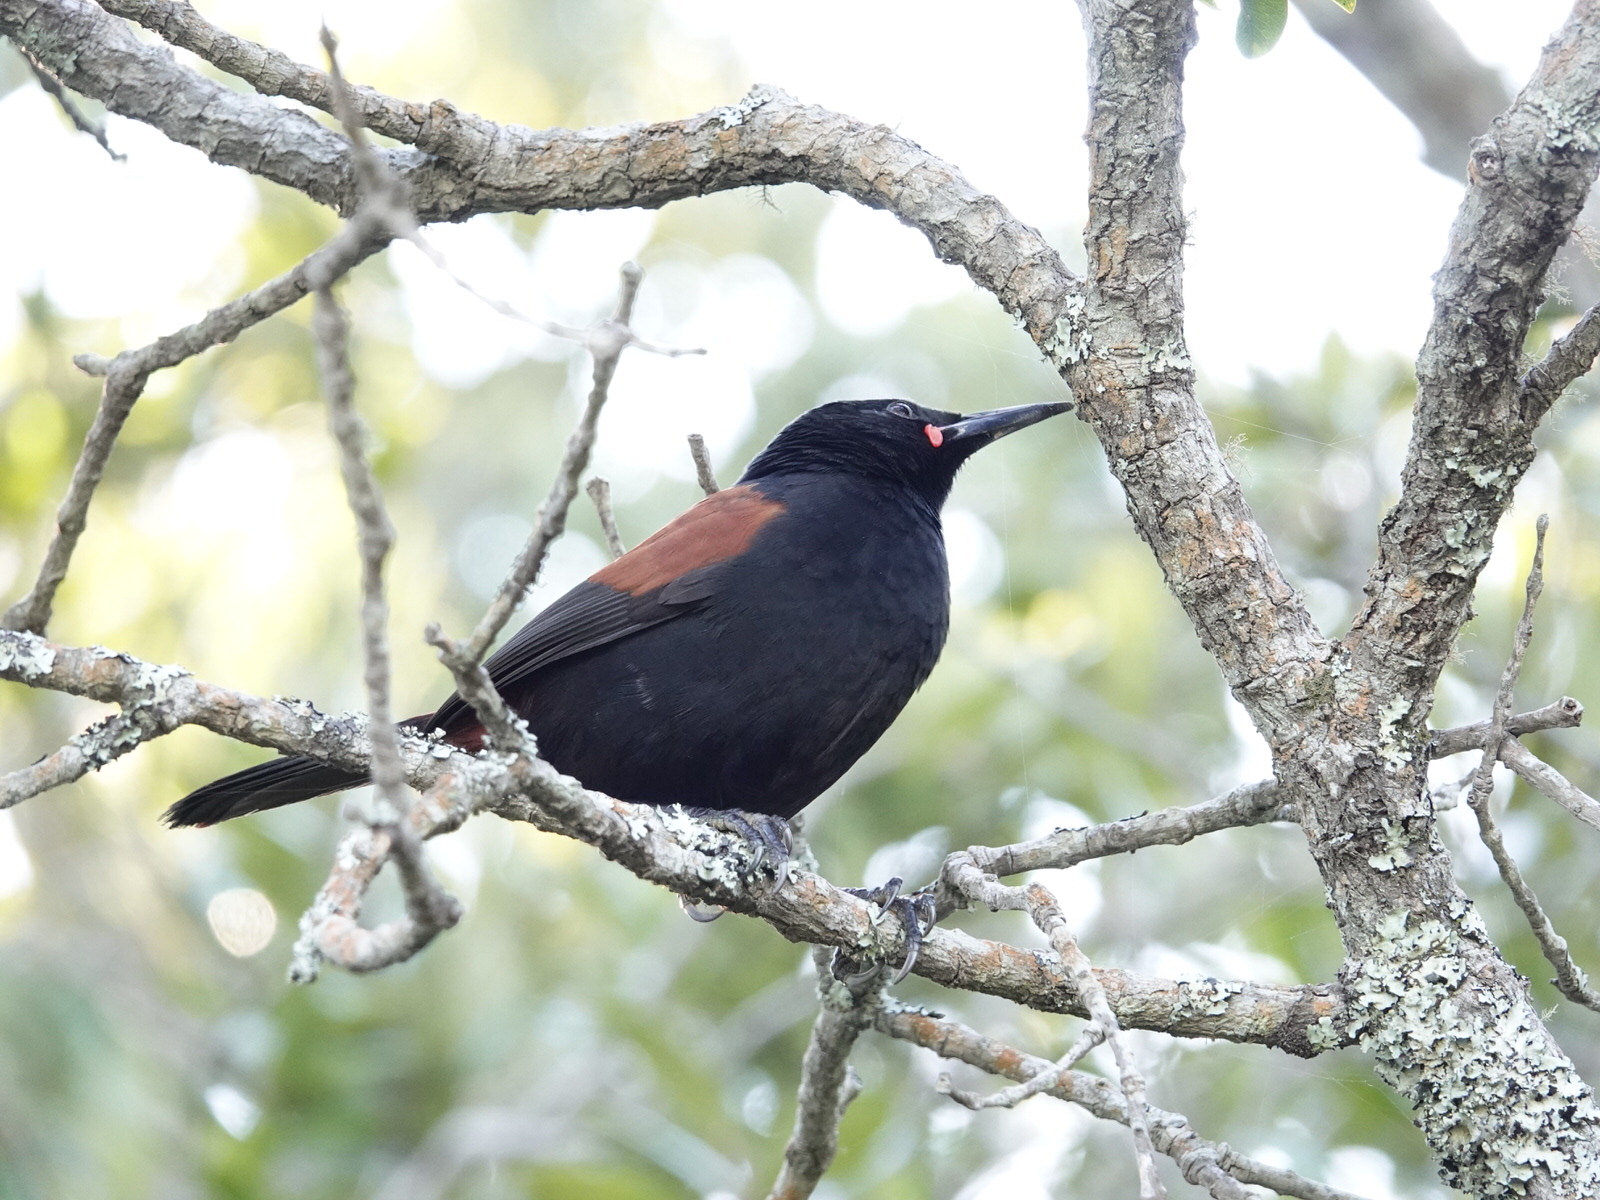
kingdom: Animalia
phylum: Chordata
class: Aves
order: Passeriformes
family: Callaeatidae
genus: Philesturnus
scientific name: Philesturnus carunculatus
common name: South island saddleback
